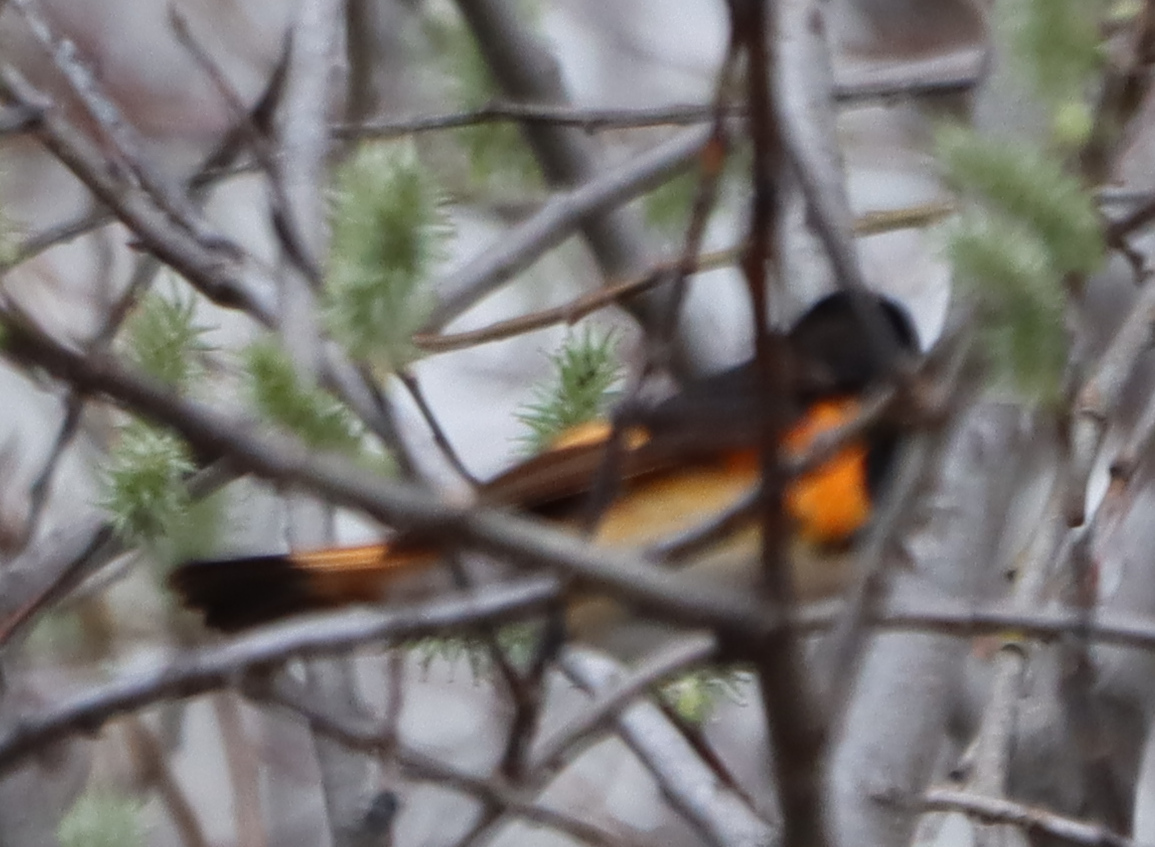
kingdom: Animalia
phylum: Chordata
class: Aves
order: Passeriformes
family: Parulidae
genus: Setophaga
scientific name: Setophaga ruticilla
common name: American redstart
